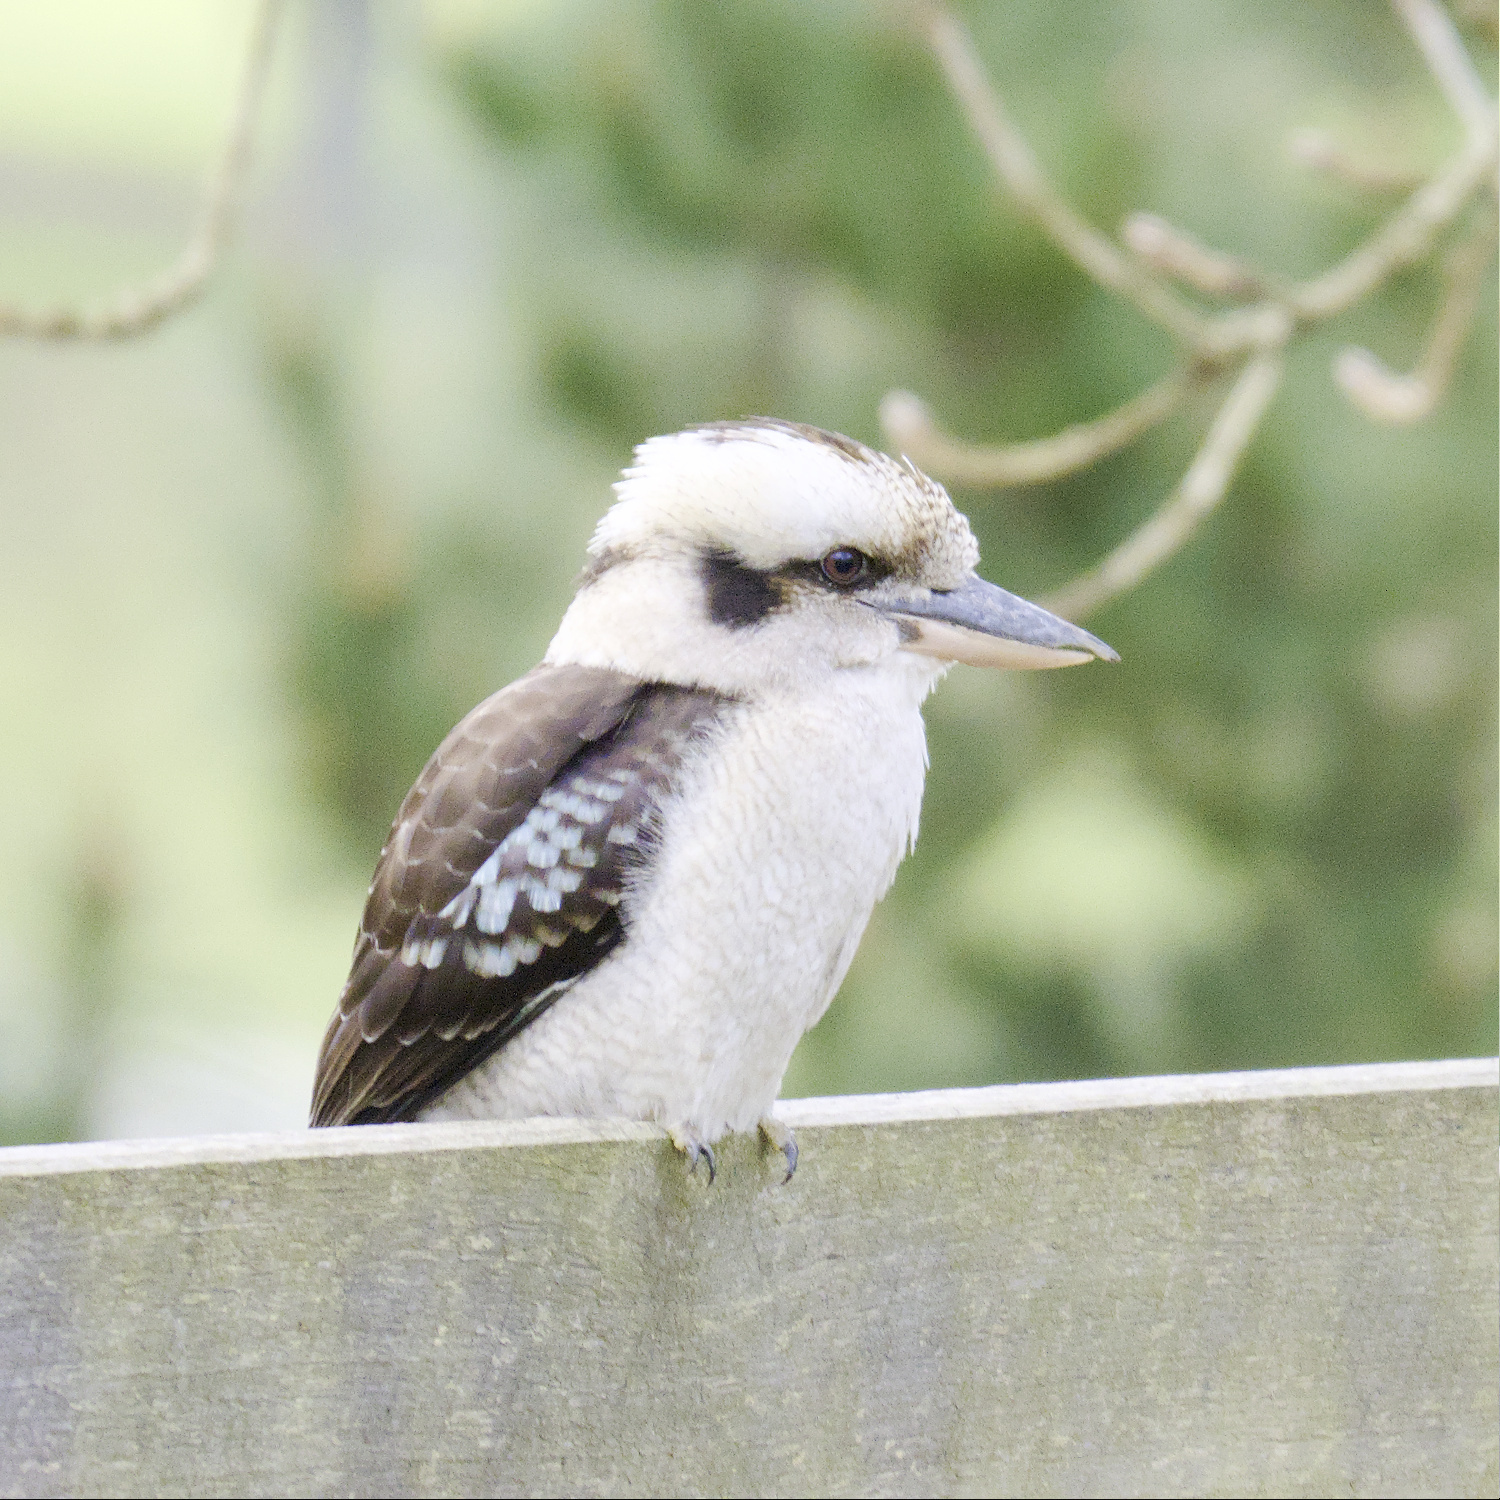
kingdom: Animalia
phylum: Chordata
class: Aves
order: Coraciiformes
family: Alcedinidae
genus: Dacelo
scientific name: Dacelo novaeguineae
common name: Laughing kookaburra
